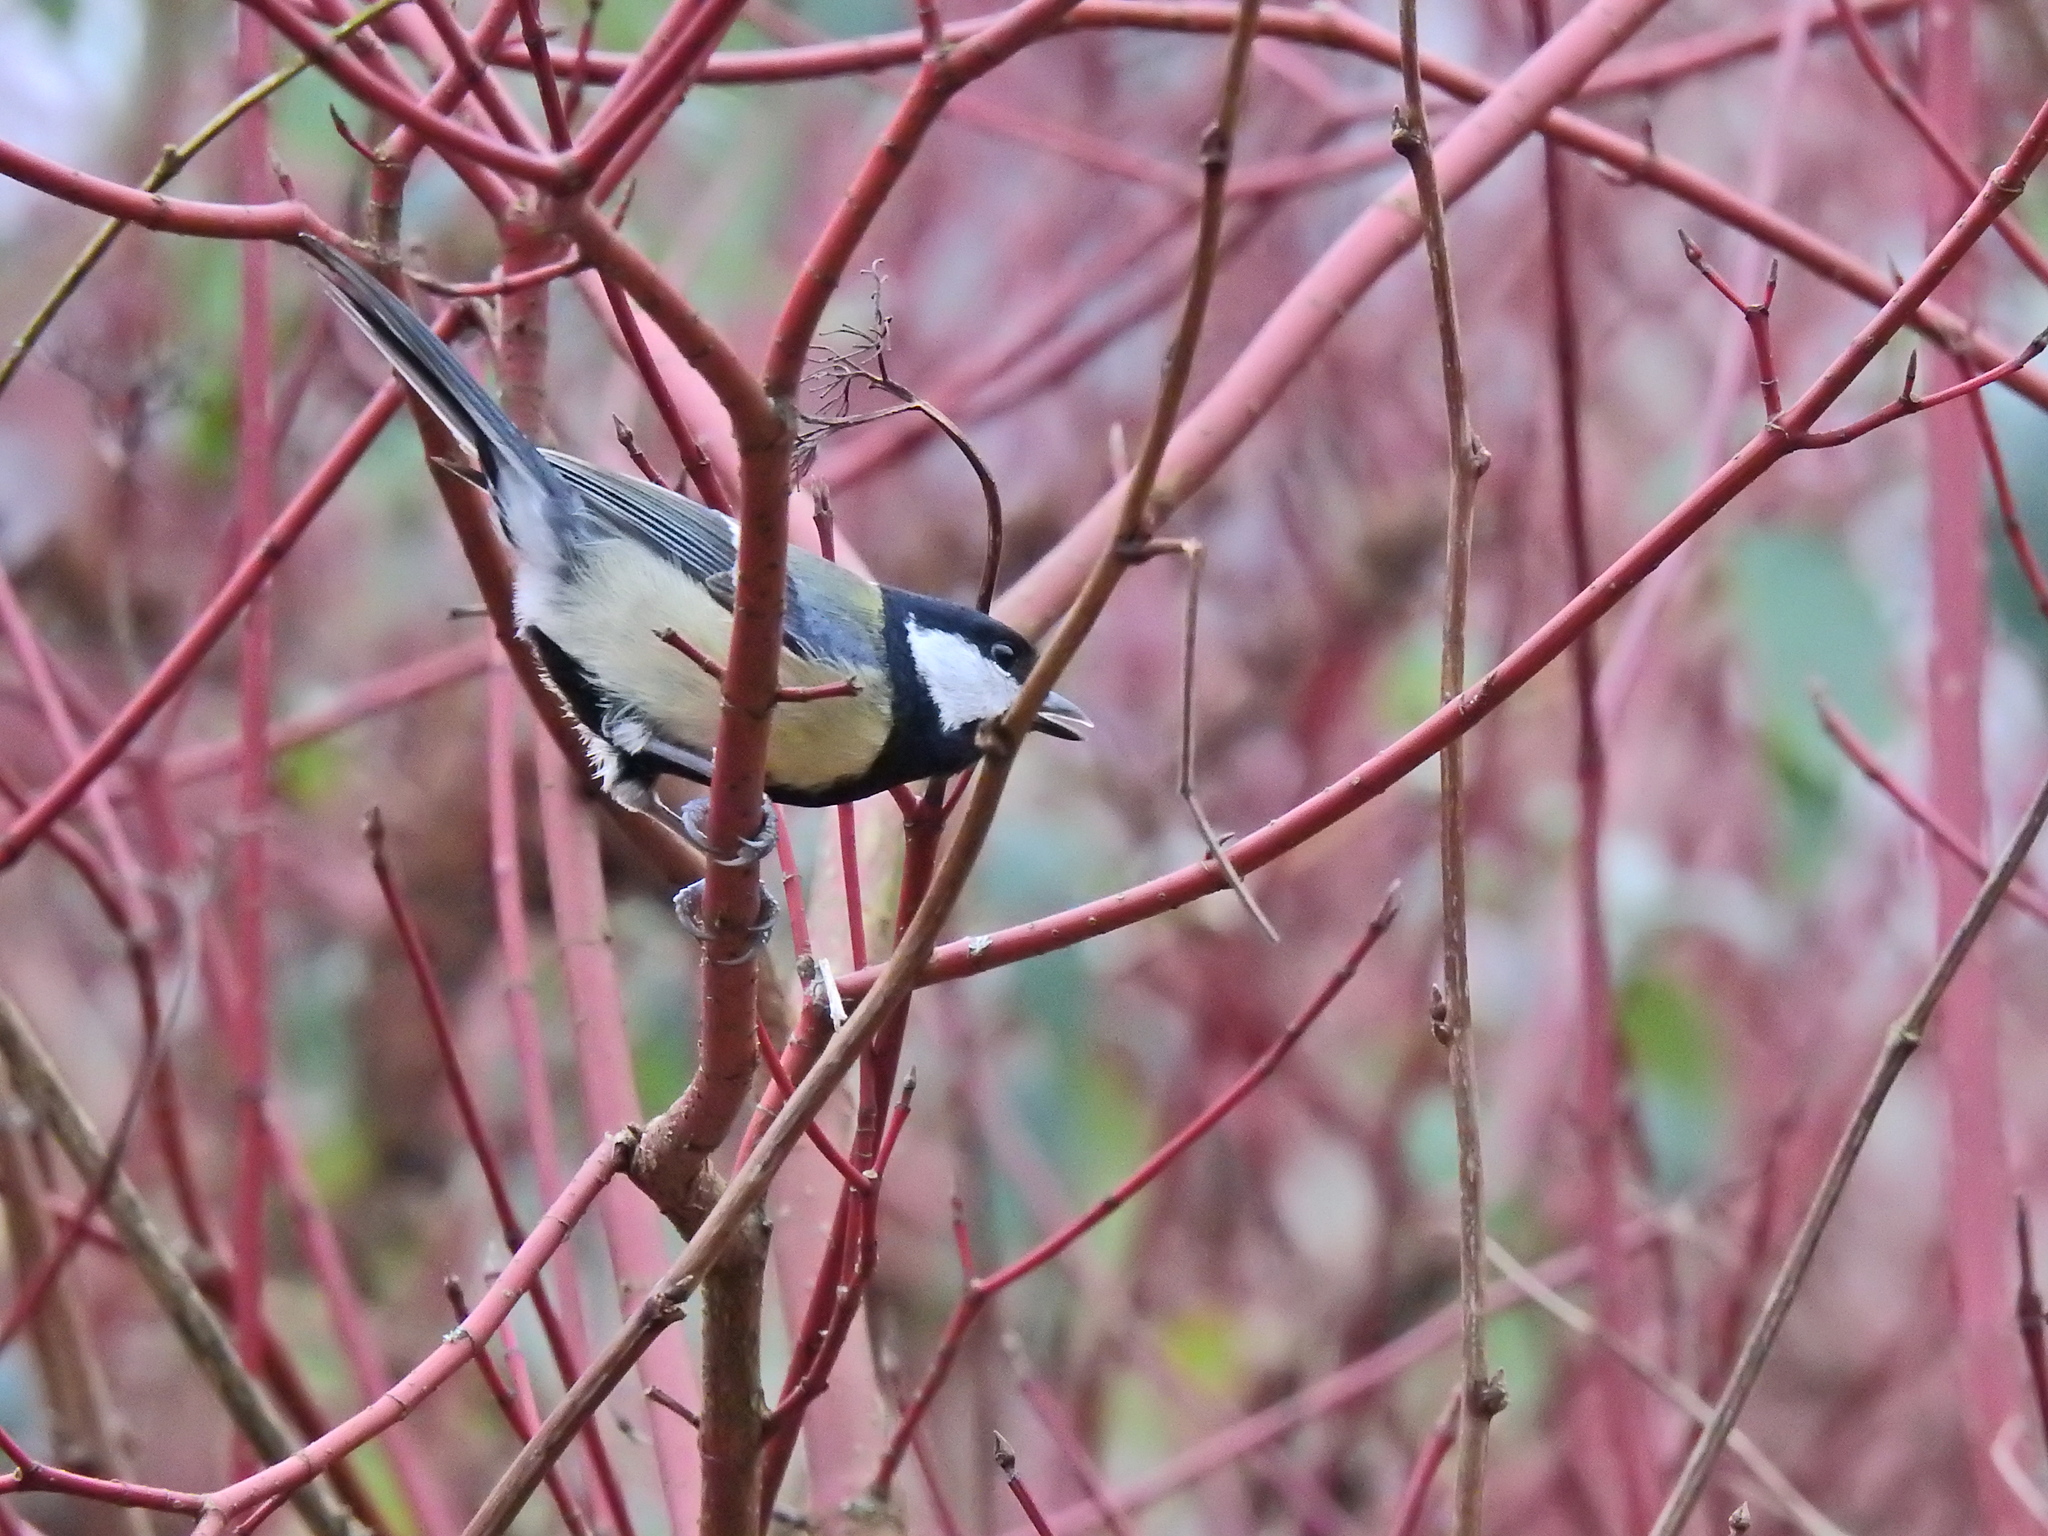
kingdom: Animalia
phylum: Chordata
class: Aves
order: Passeriformes
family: Paridae
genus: Parus
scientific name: Parus major
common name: Great tit
